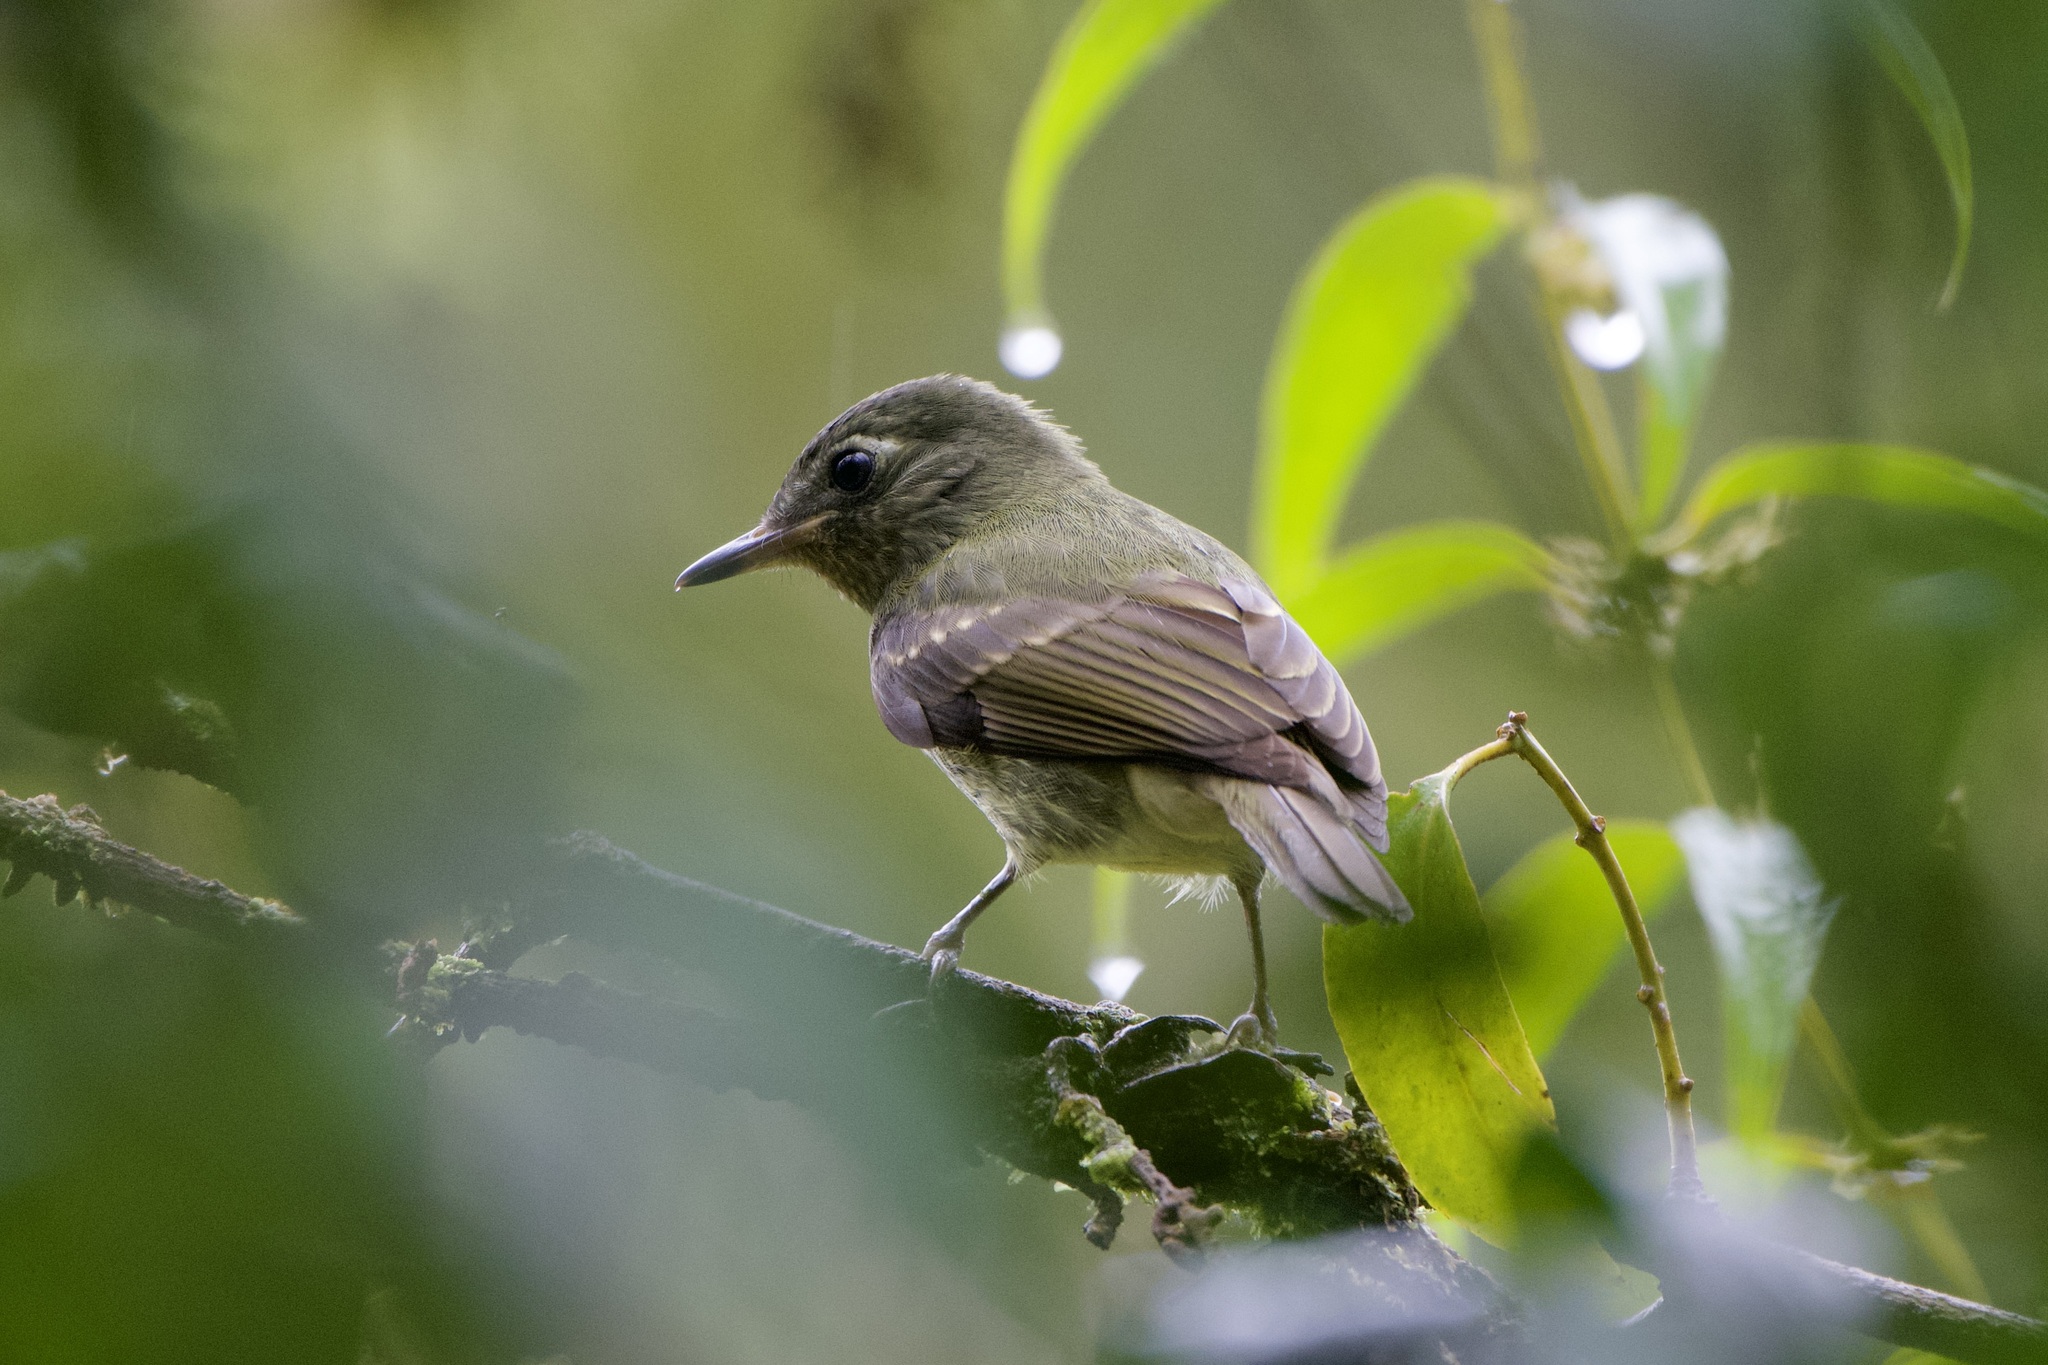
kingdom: Animalia
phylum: Chordata
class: Aves
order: Passeriformes
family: Tyrannidae
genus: Mionectes
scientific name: Mionectes galbinus
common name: Olive-striped flycatcher
